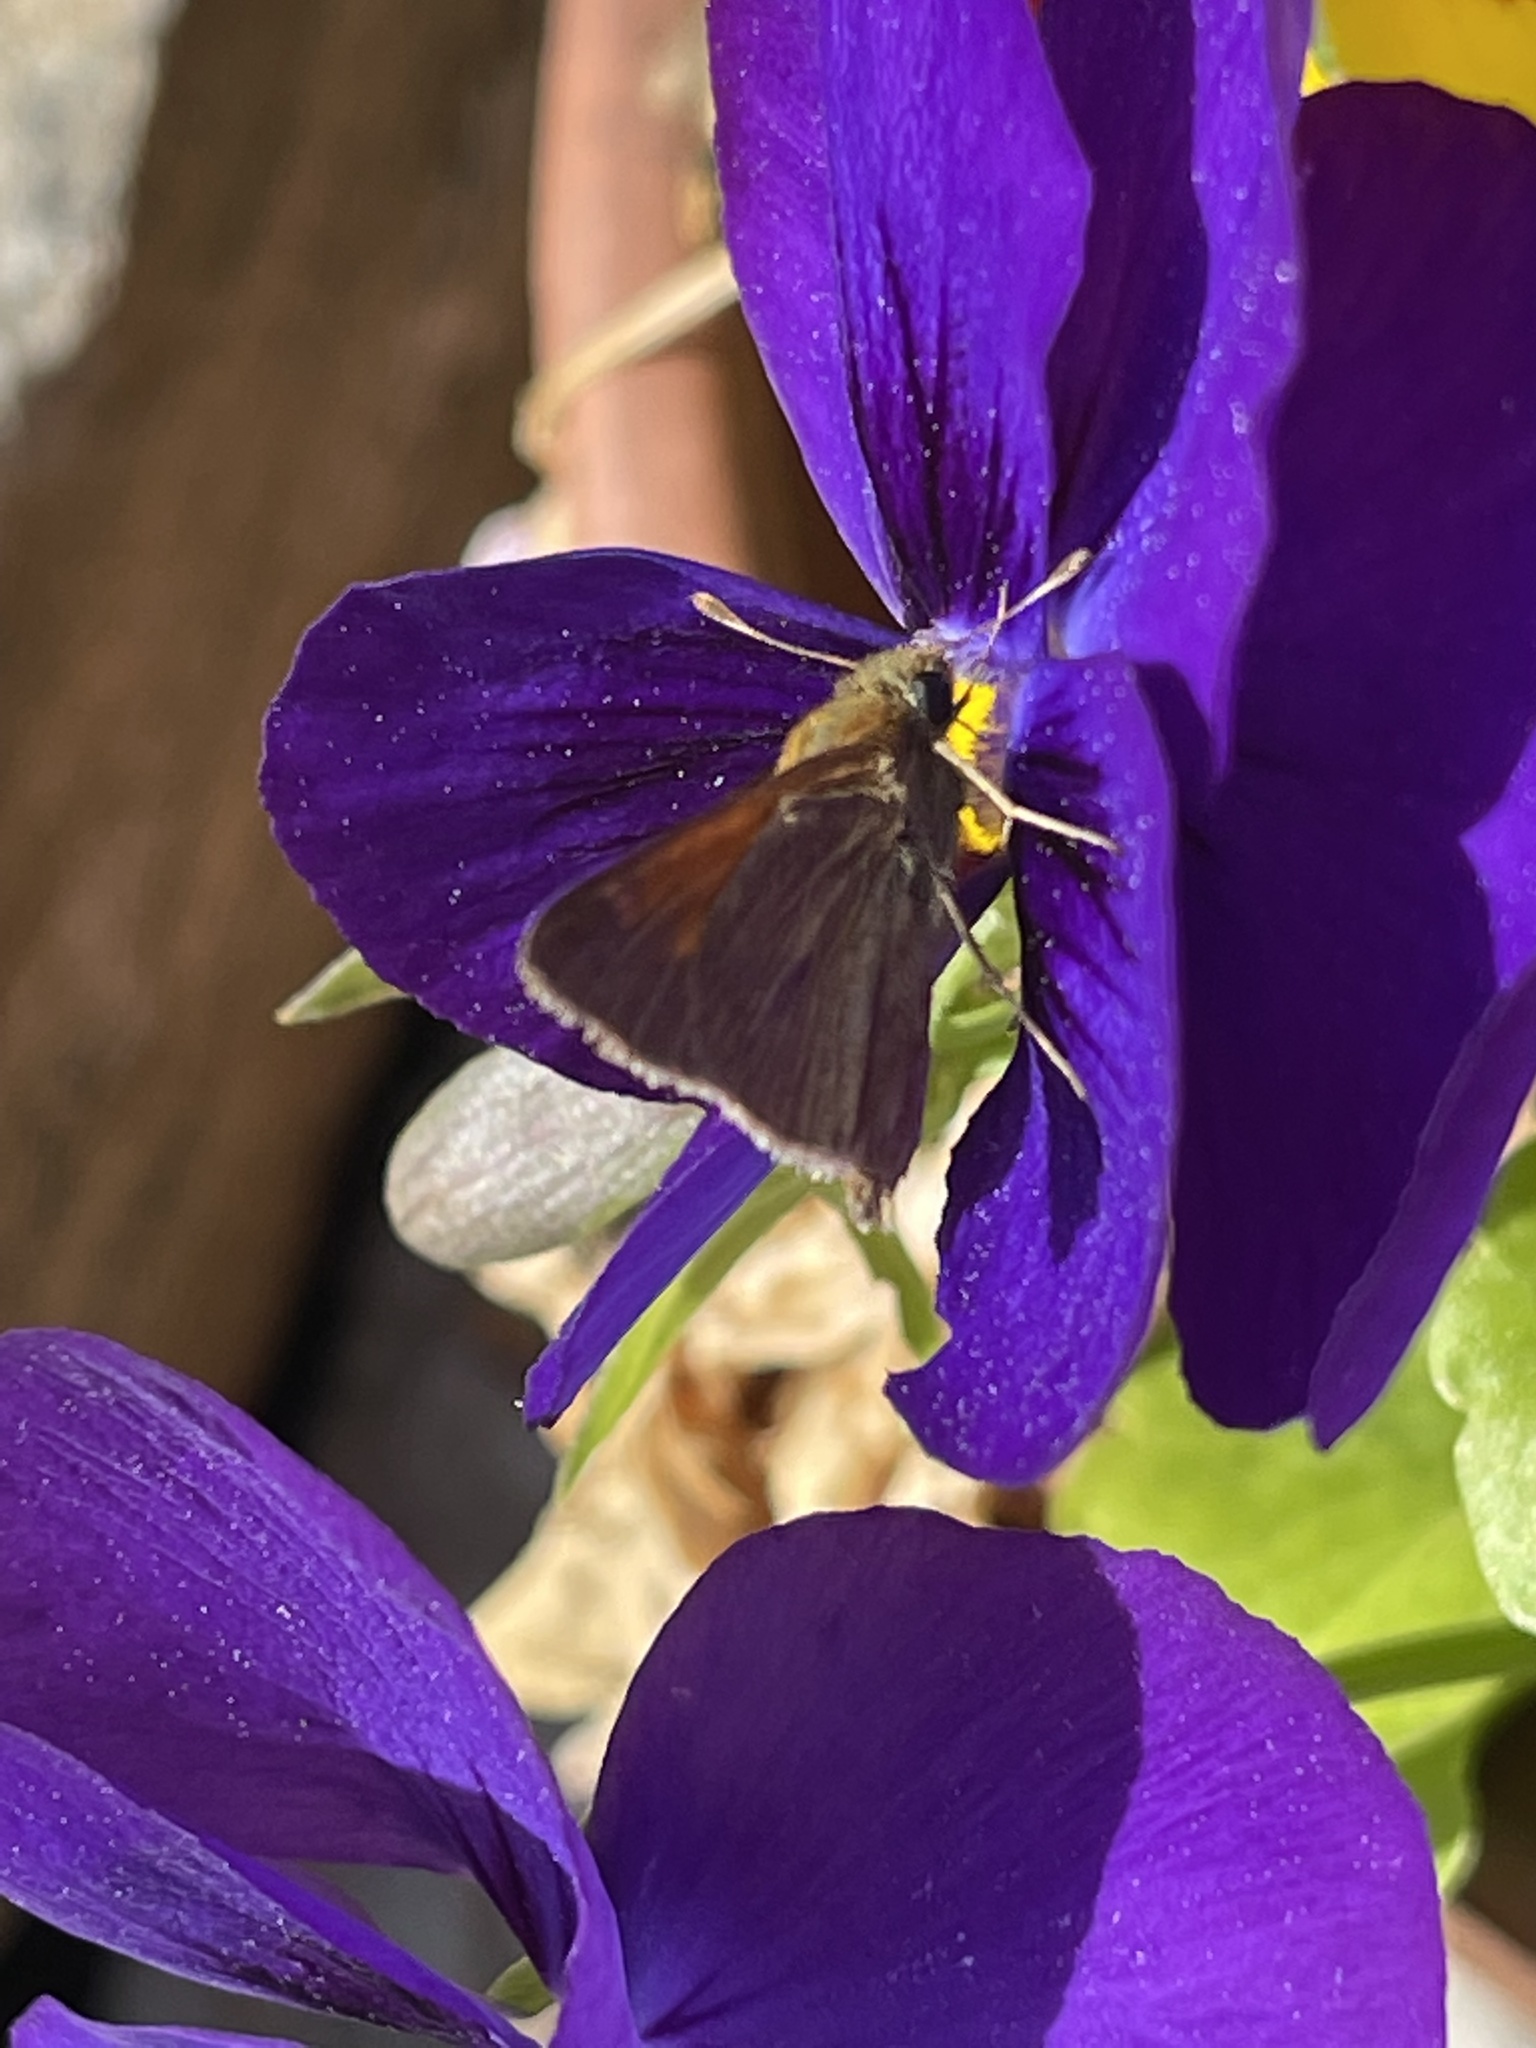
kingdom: Animalia
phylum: Arthropoda
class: Insecta
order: Lepidoptera
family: Hesperiidae
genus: Polites
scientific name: Polites themistocles
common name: Tawny-edged skipper
